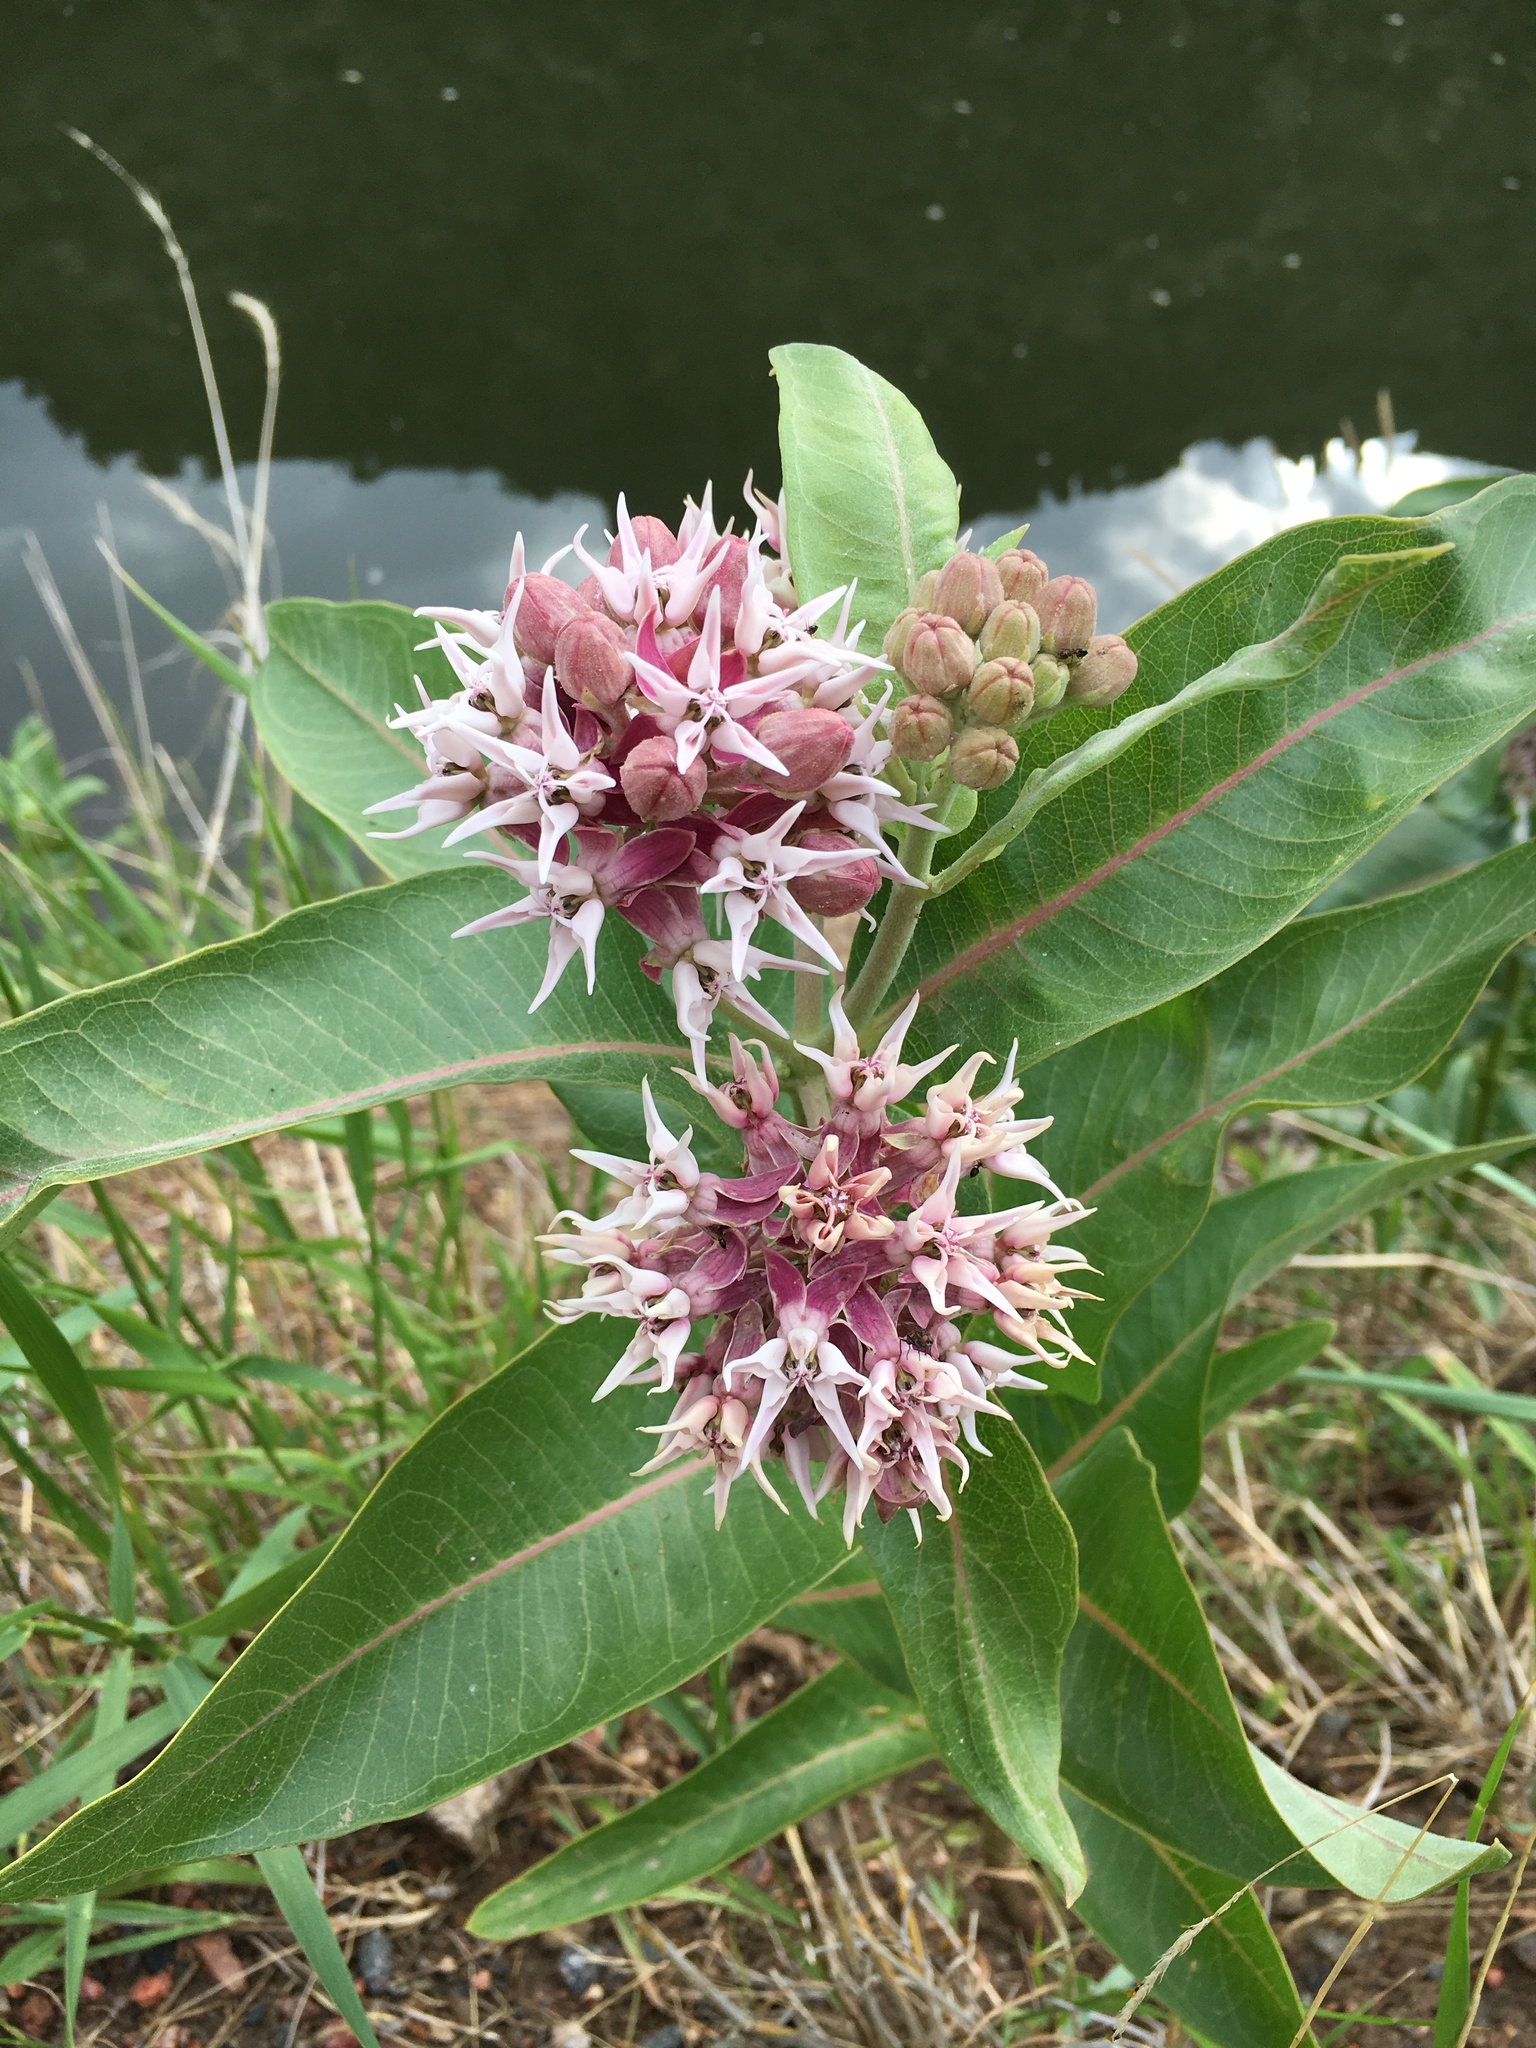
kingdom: Plantae
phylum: Tracheophyta
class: Magnoliopsida
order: Gentianales
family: Apocynaceae
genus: Asclepias
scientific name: Asclepias speciosa
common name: Showy milkweed
